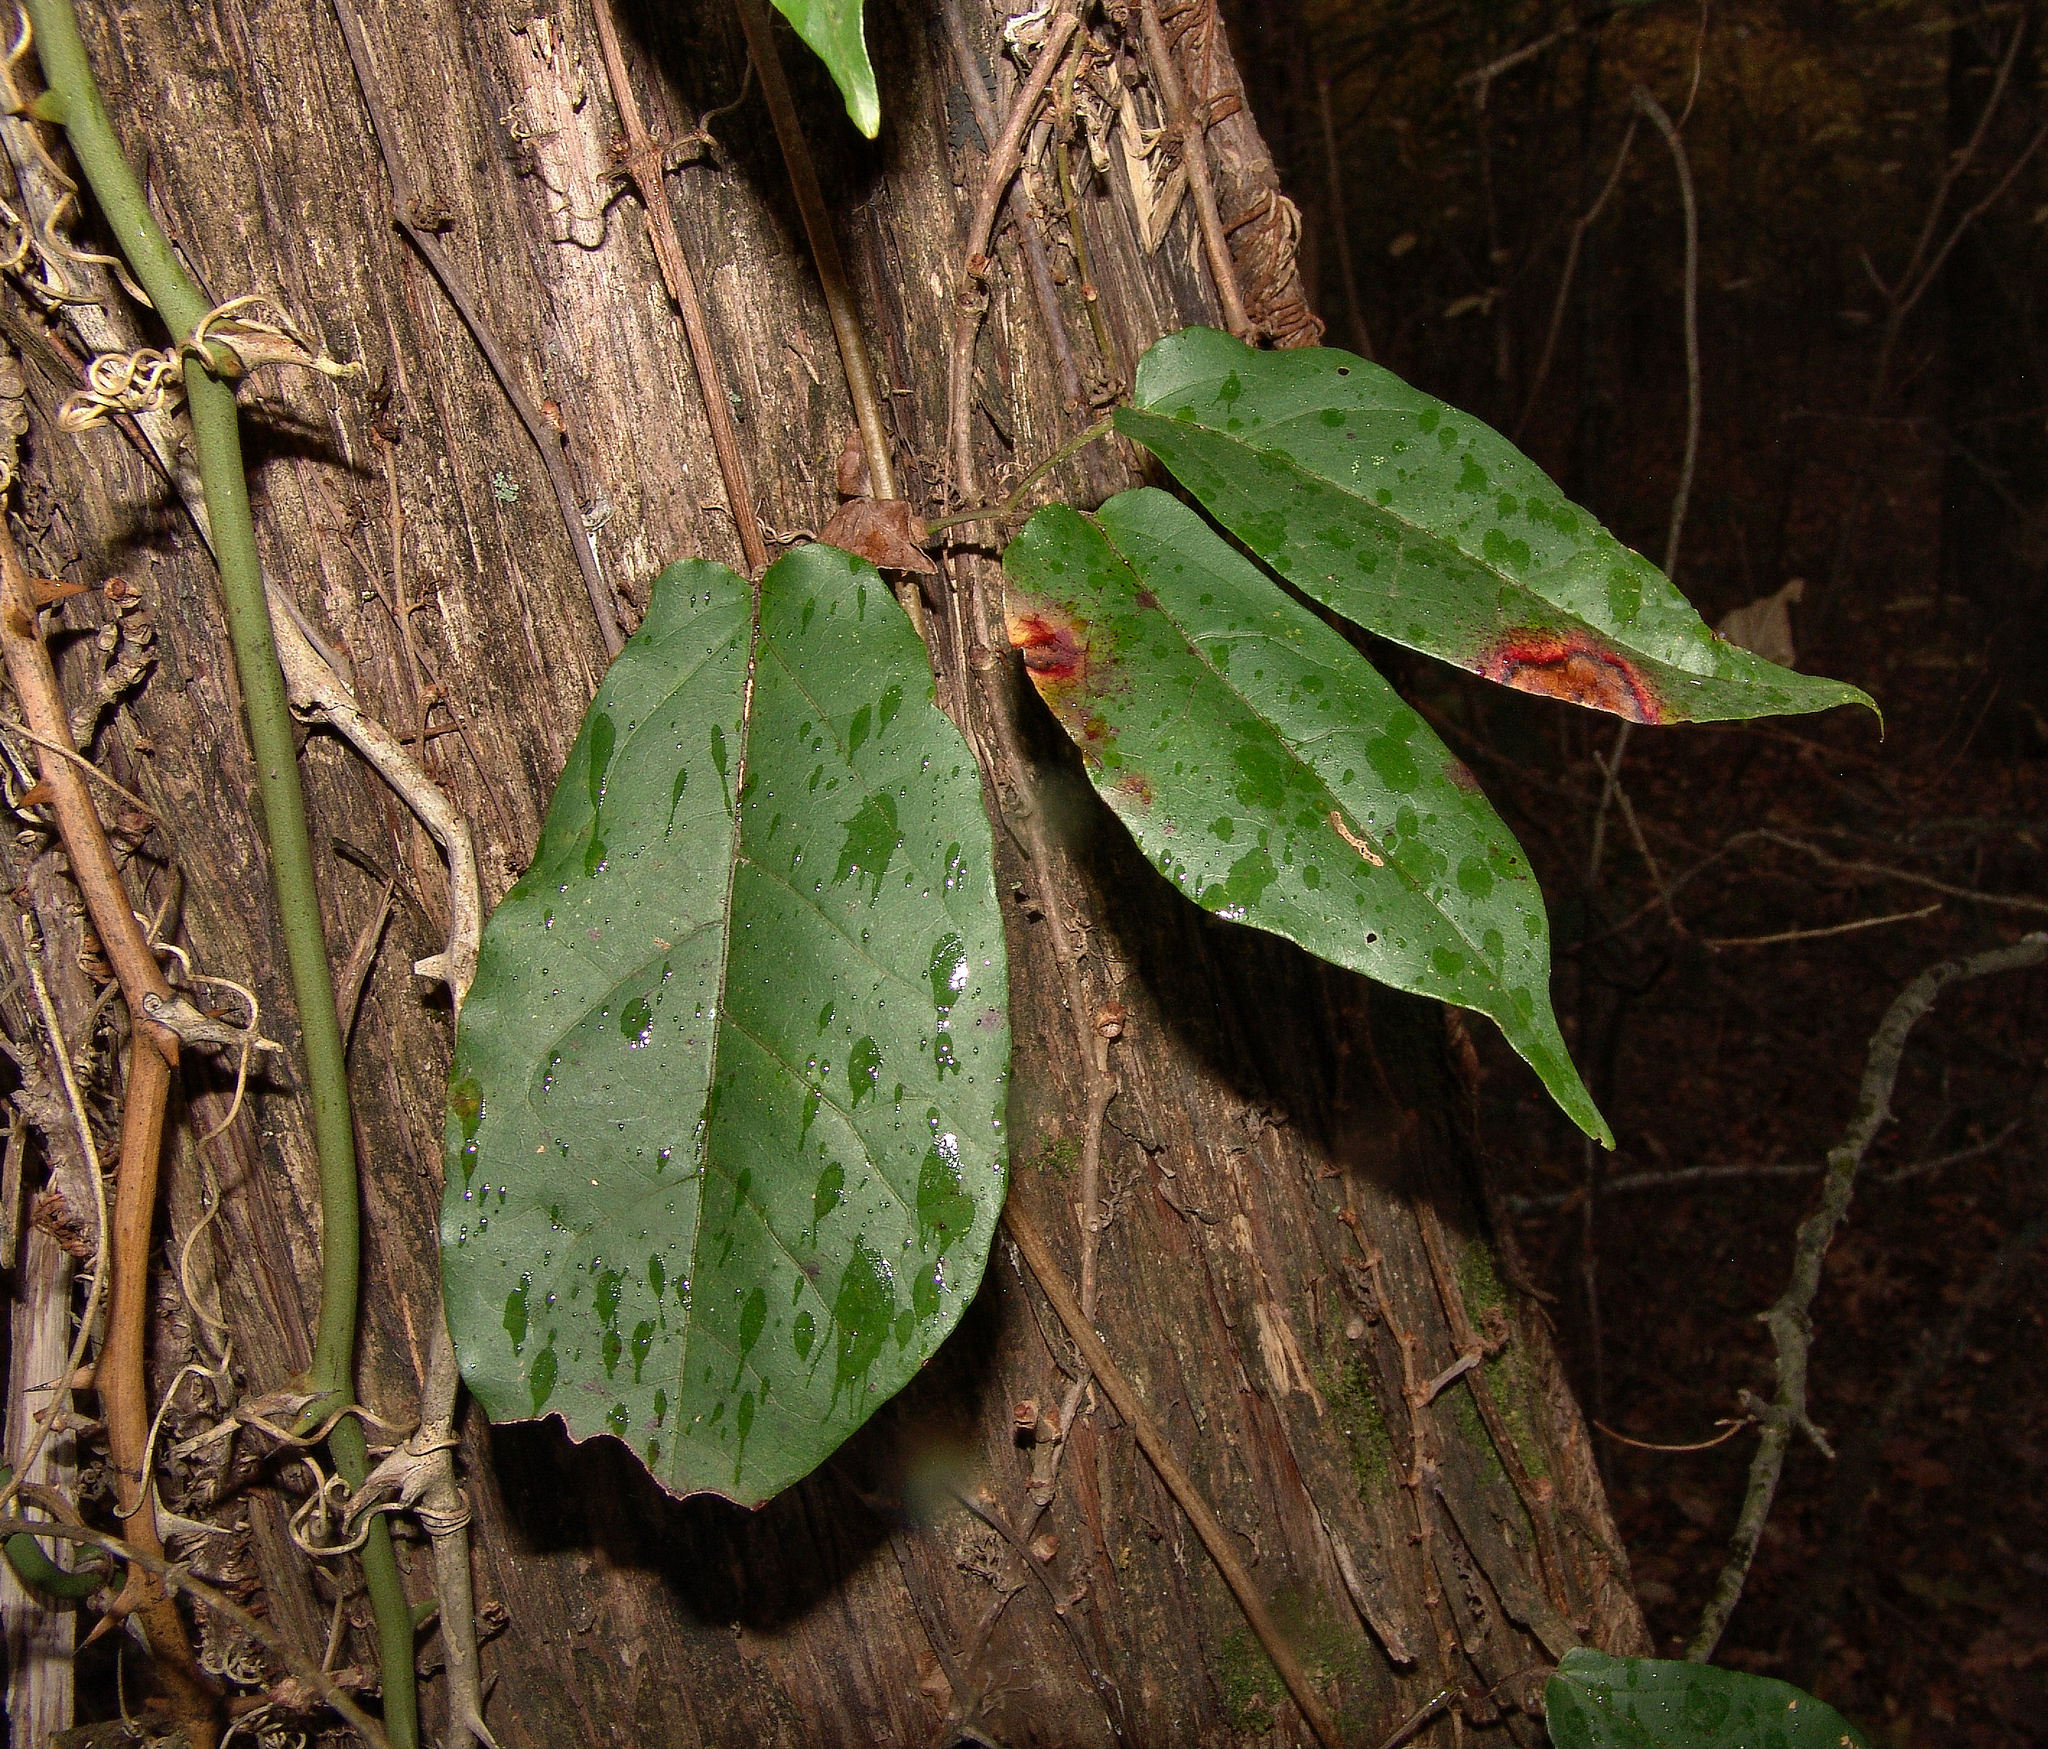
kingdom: Plantae
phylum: Tracheophyta
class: Magnoliopsida
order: Lamiales
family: Bignoniaceae
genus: Bignonia
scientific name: Bignonia capreolata
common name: Crossvine
